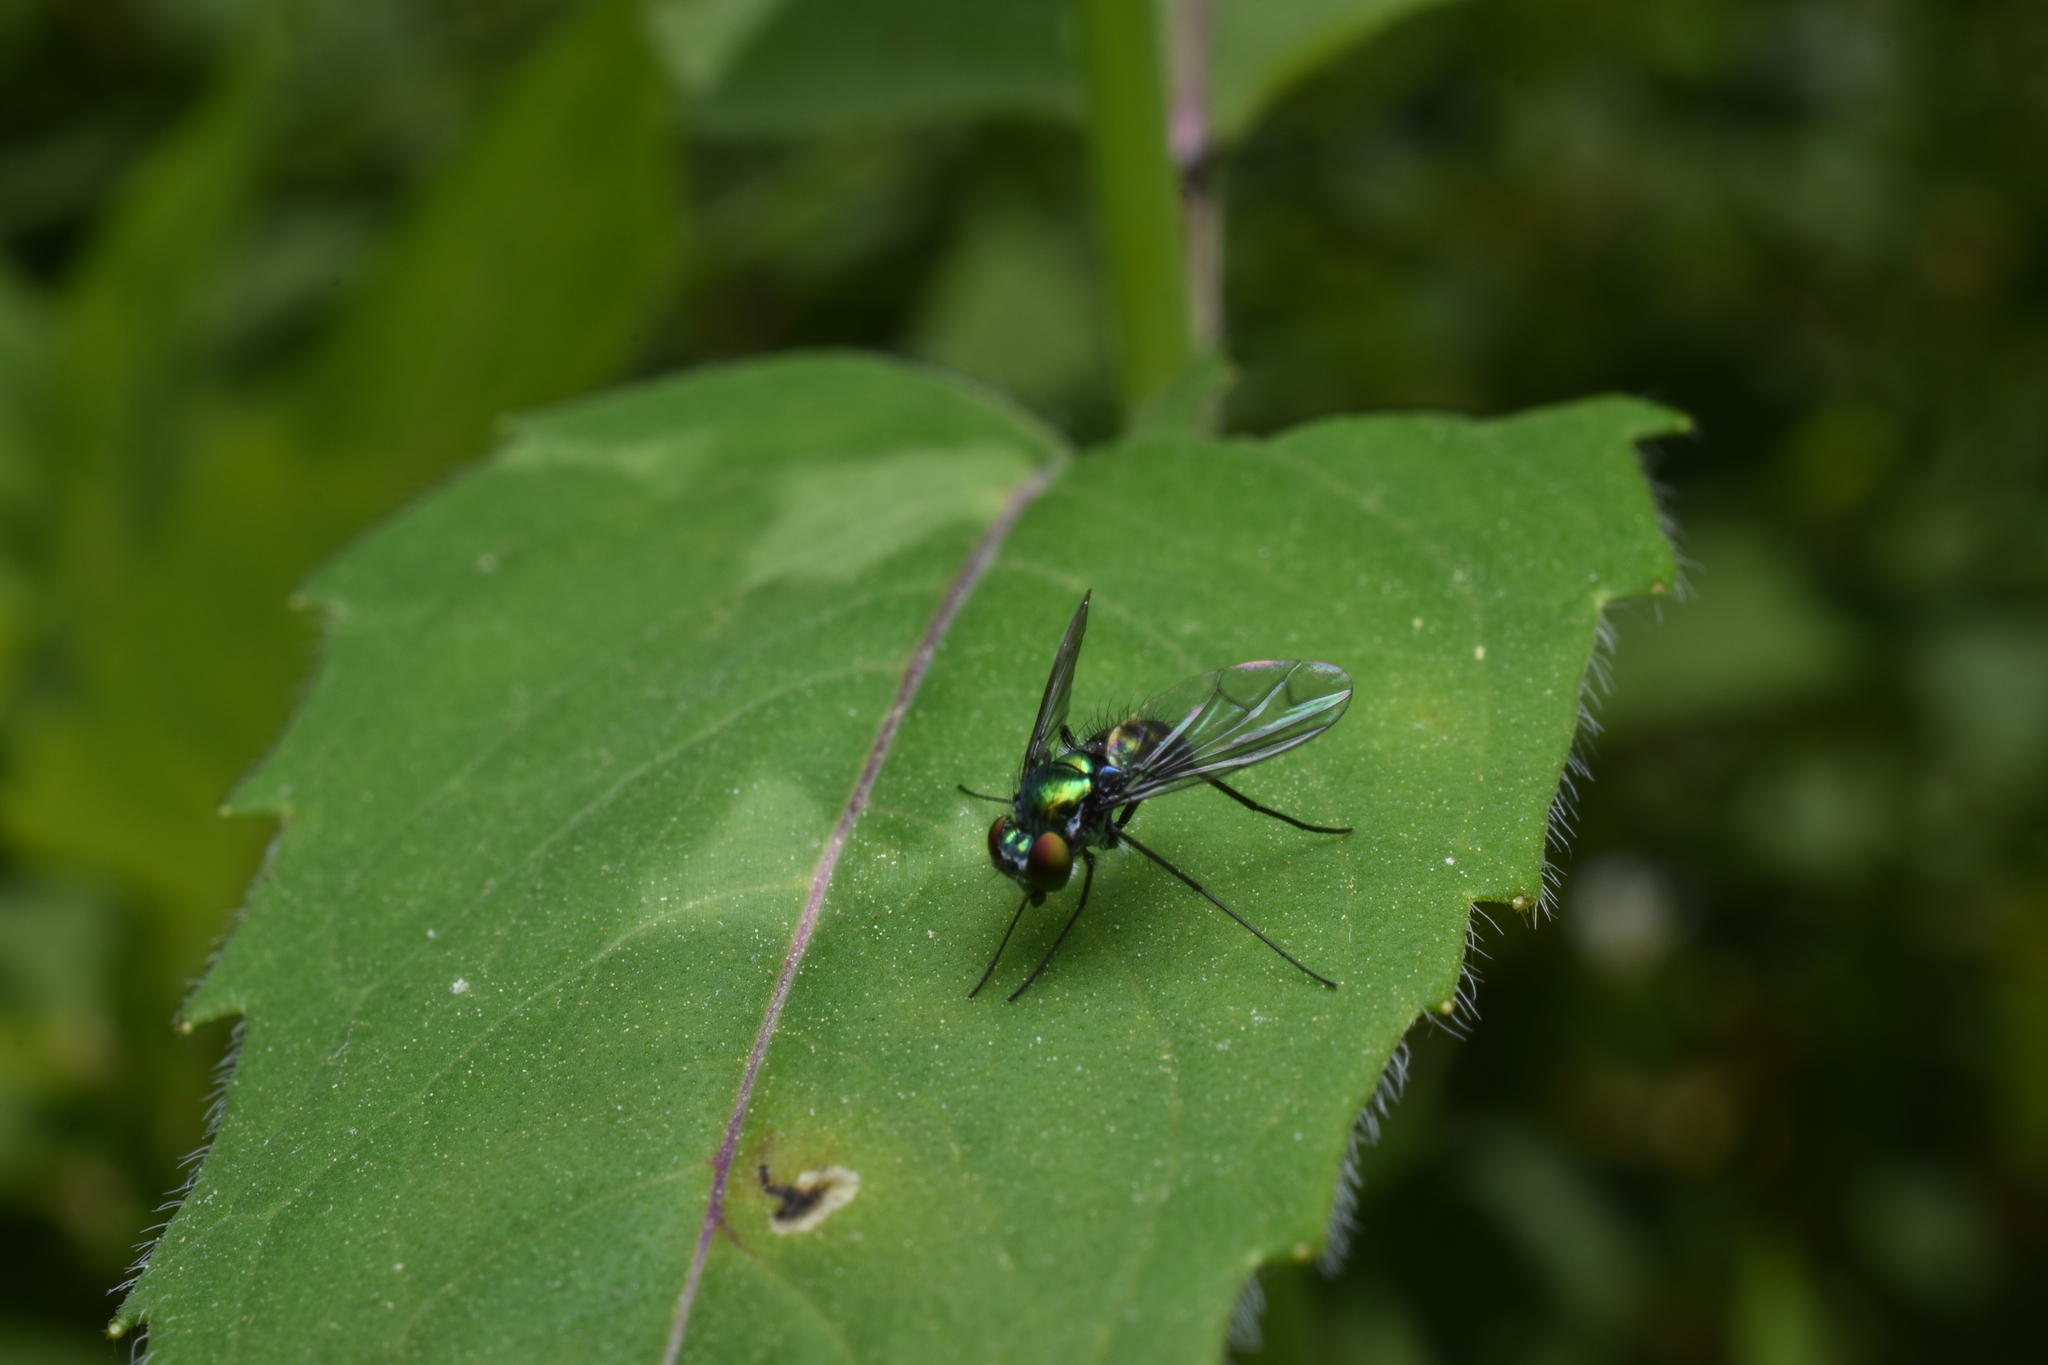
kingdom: Animalia
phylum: Arthropoda
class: Insecta
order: Diptera
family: Dolichopodidae
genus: Condylostylus
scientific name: Condylostylus patibulatus
